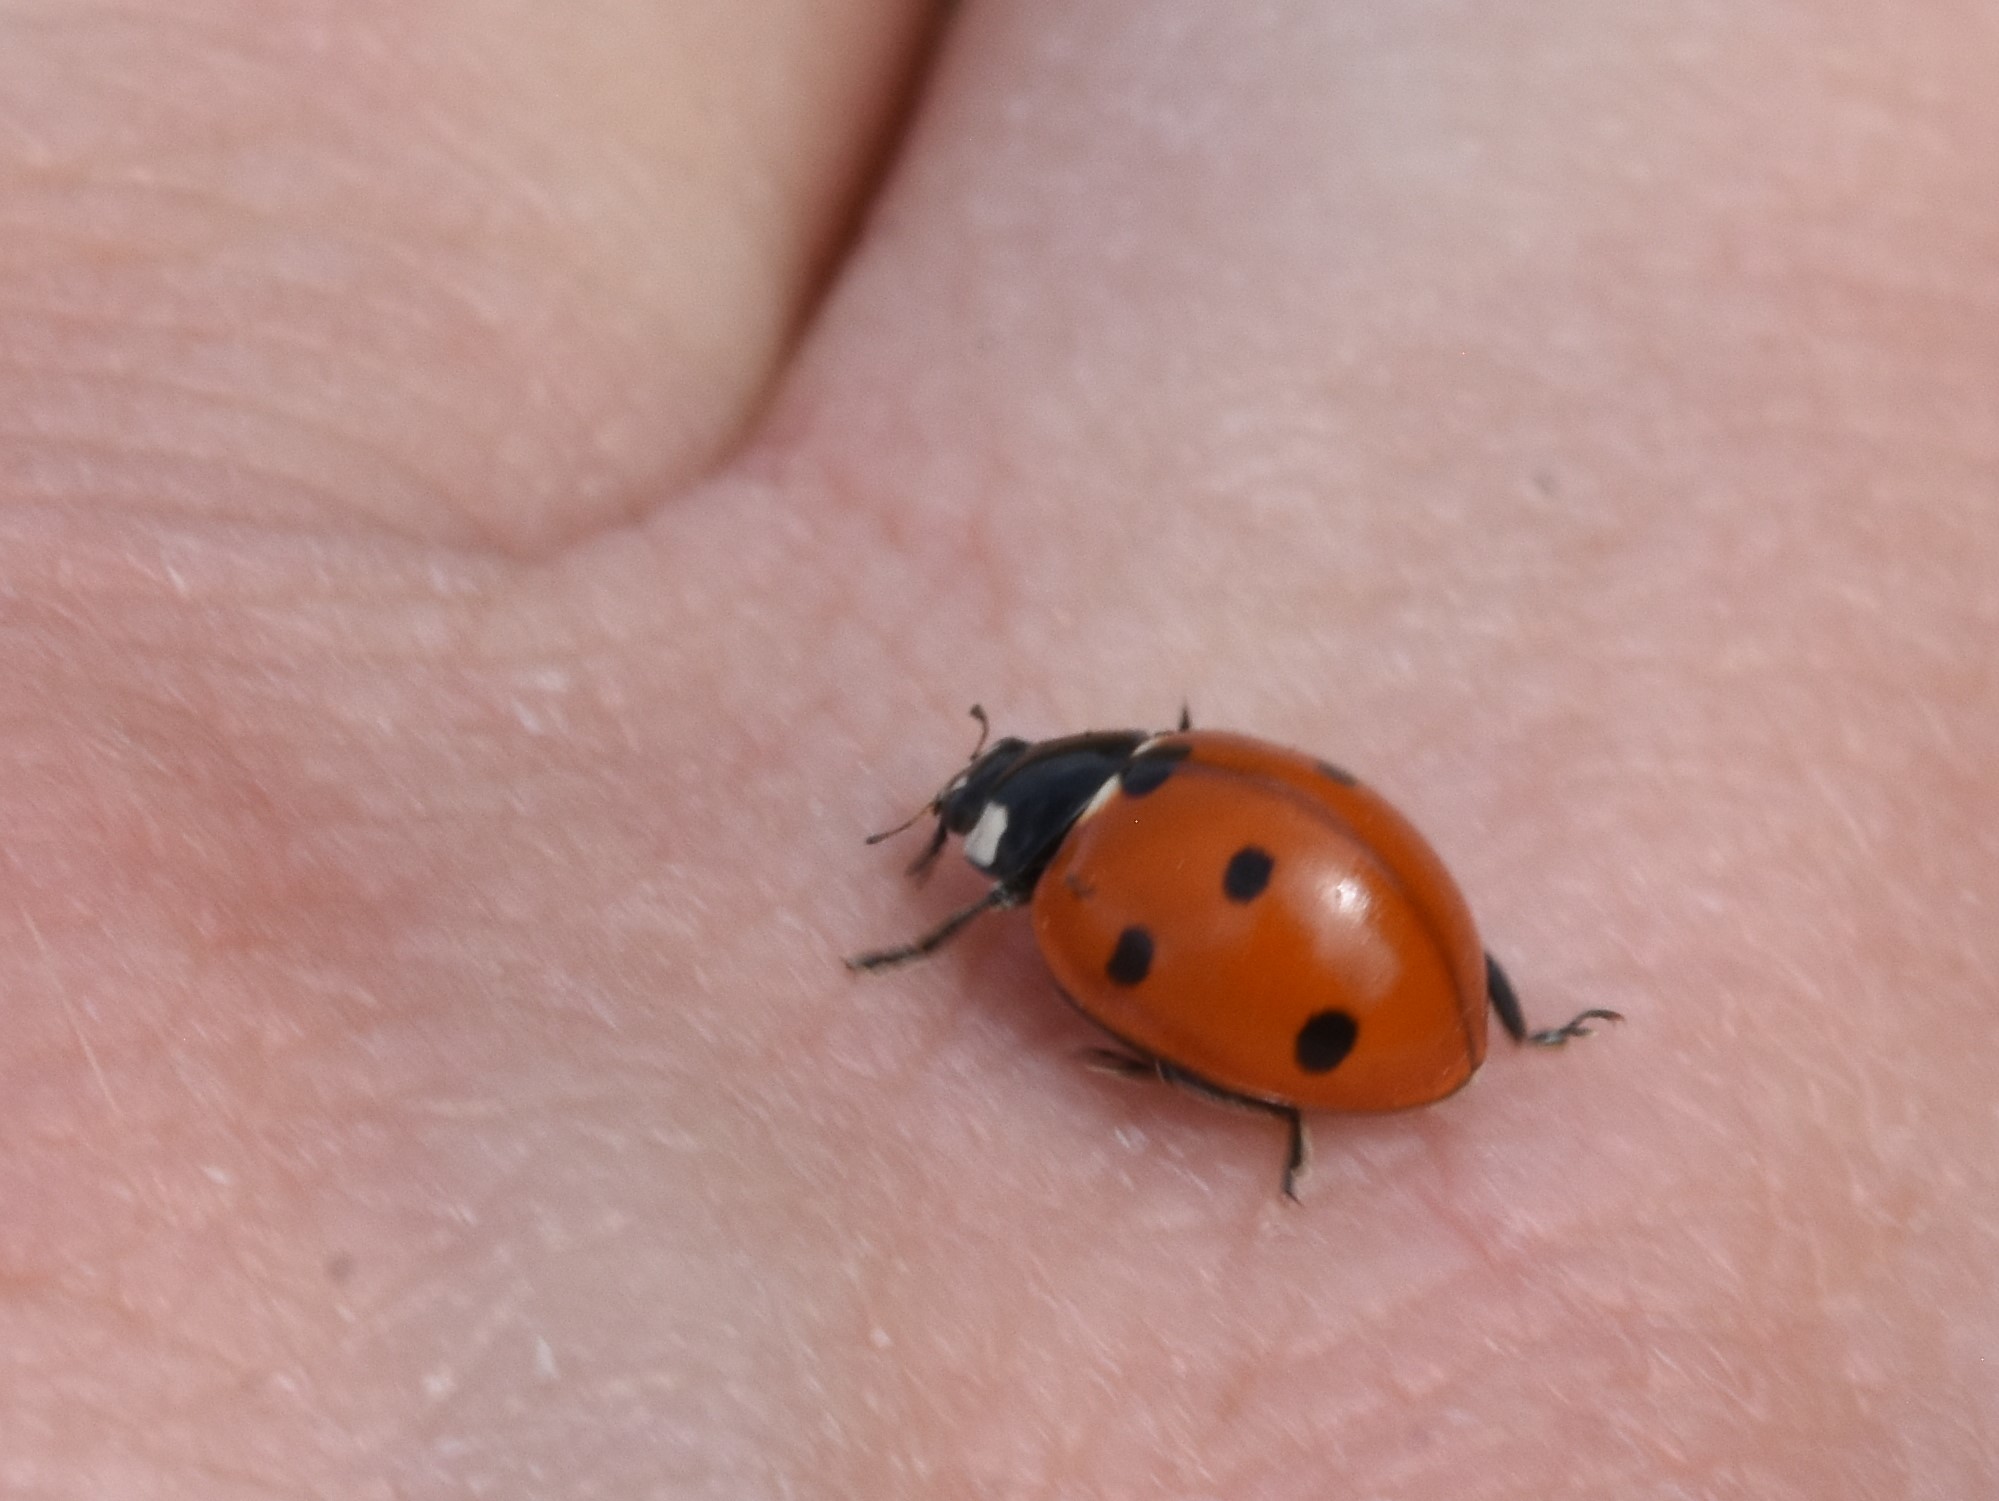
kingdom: Animalia
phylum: Arthropoda
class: Insecta
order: Coleoptera
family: Coccinellidae
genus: Coccinella
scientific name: Coccinella septempunctata
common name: Sevenspotted lady beetle
